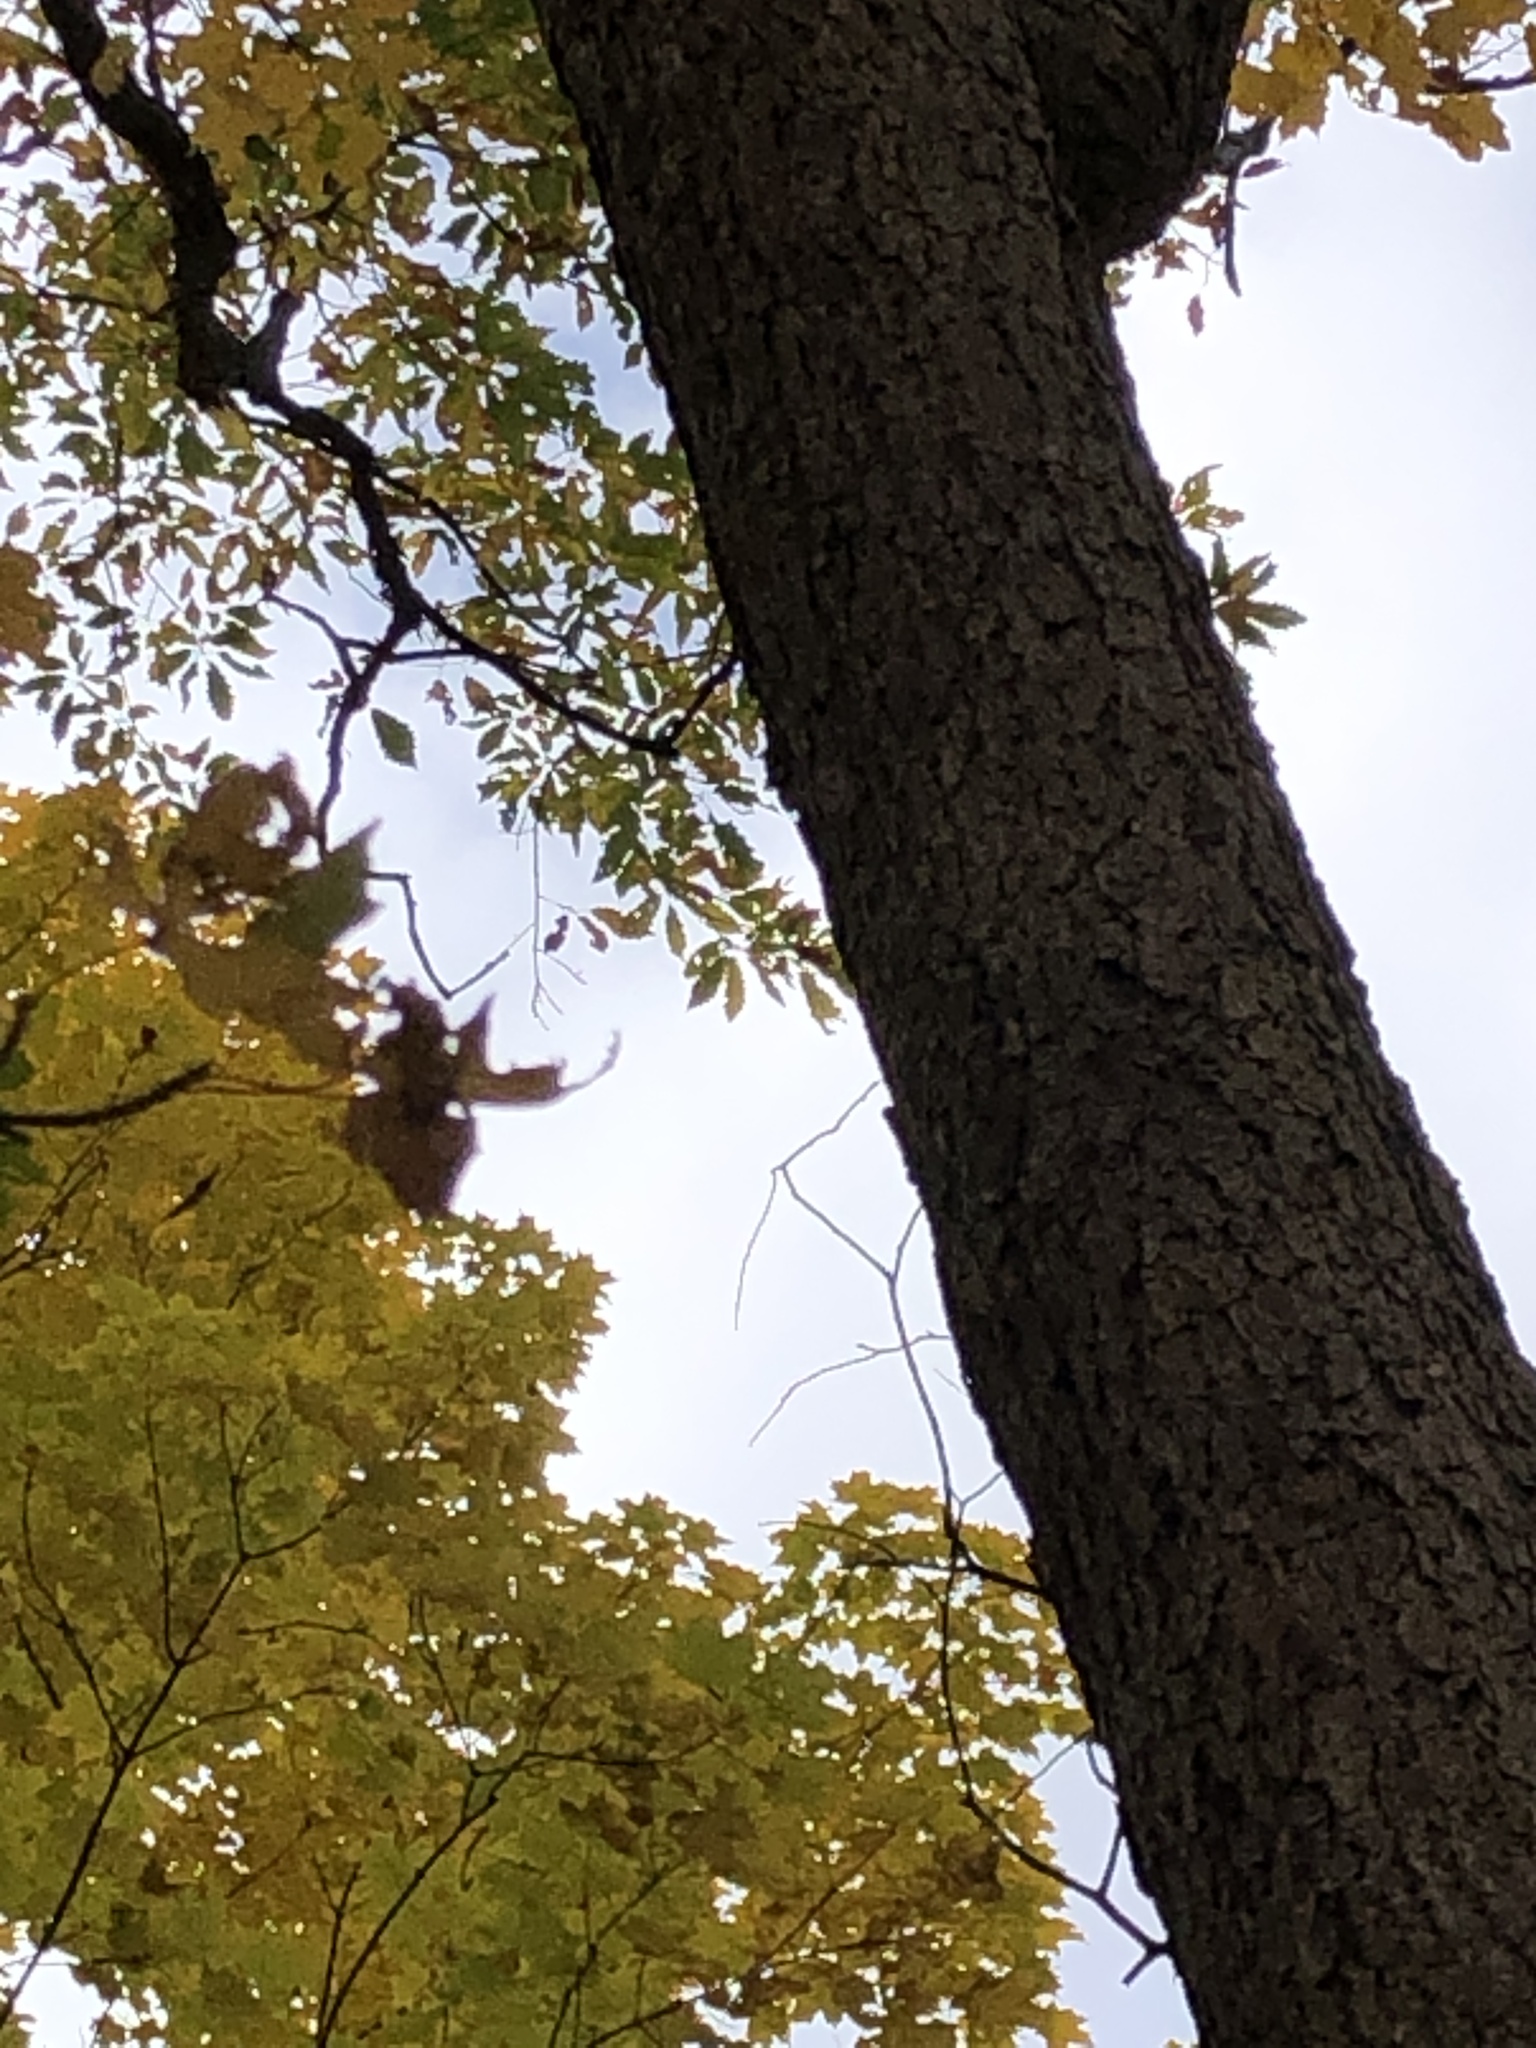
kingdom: Plantae
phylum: Tracheophyta
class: Magnoliopsida
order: Fagales
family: Fagaceae
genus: Quercus
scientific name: Quercus muehlenbergii
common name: Chinkapin oak
